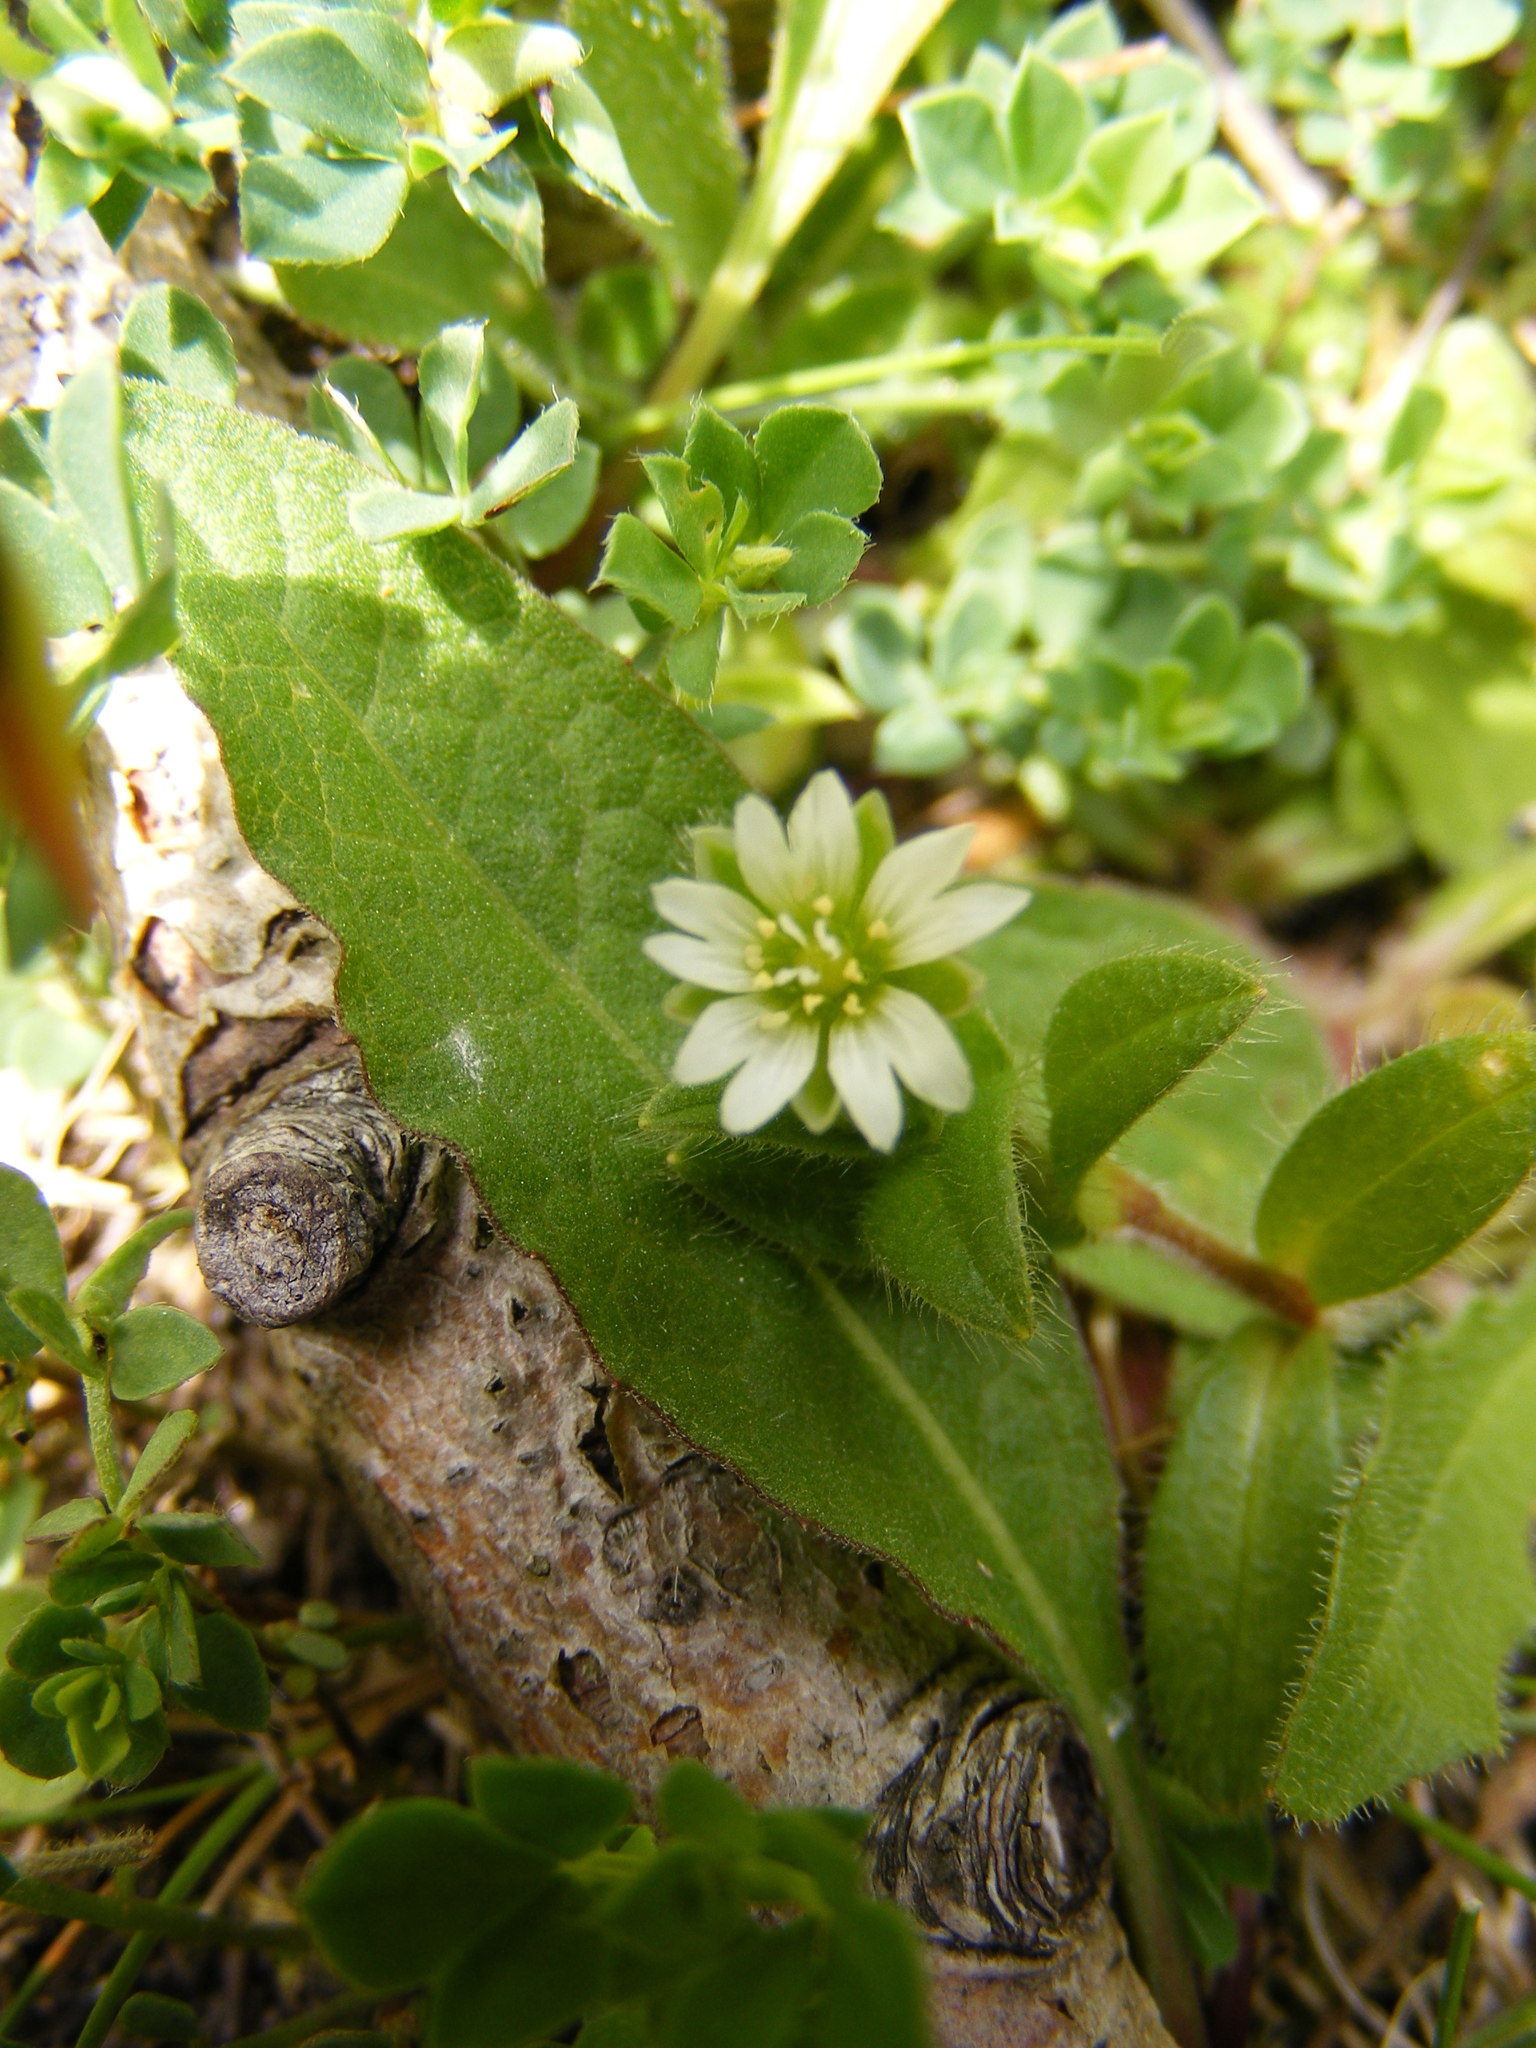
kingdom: Plantae
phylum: Tracheophyta
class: Magnoliopsida
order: Caryophyllales
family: Caryophyllaceae
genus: Cerastium
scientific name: Cerastium fontanum
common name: Common mouse-ear
